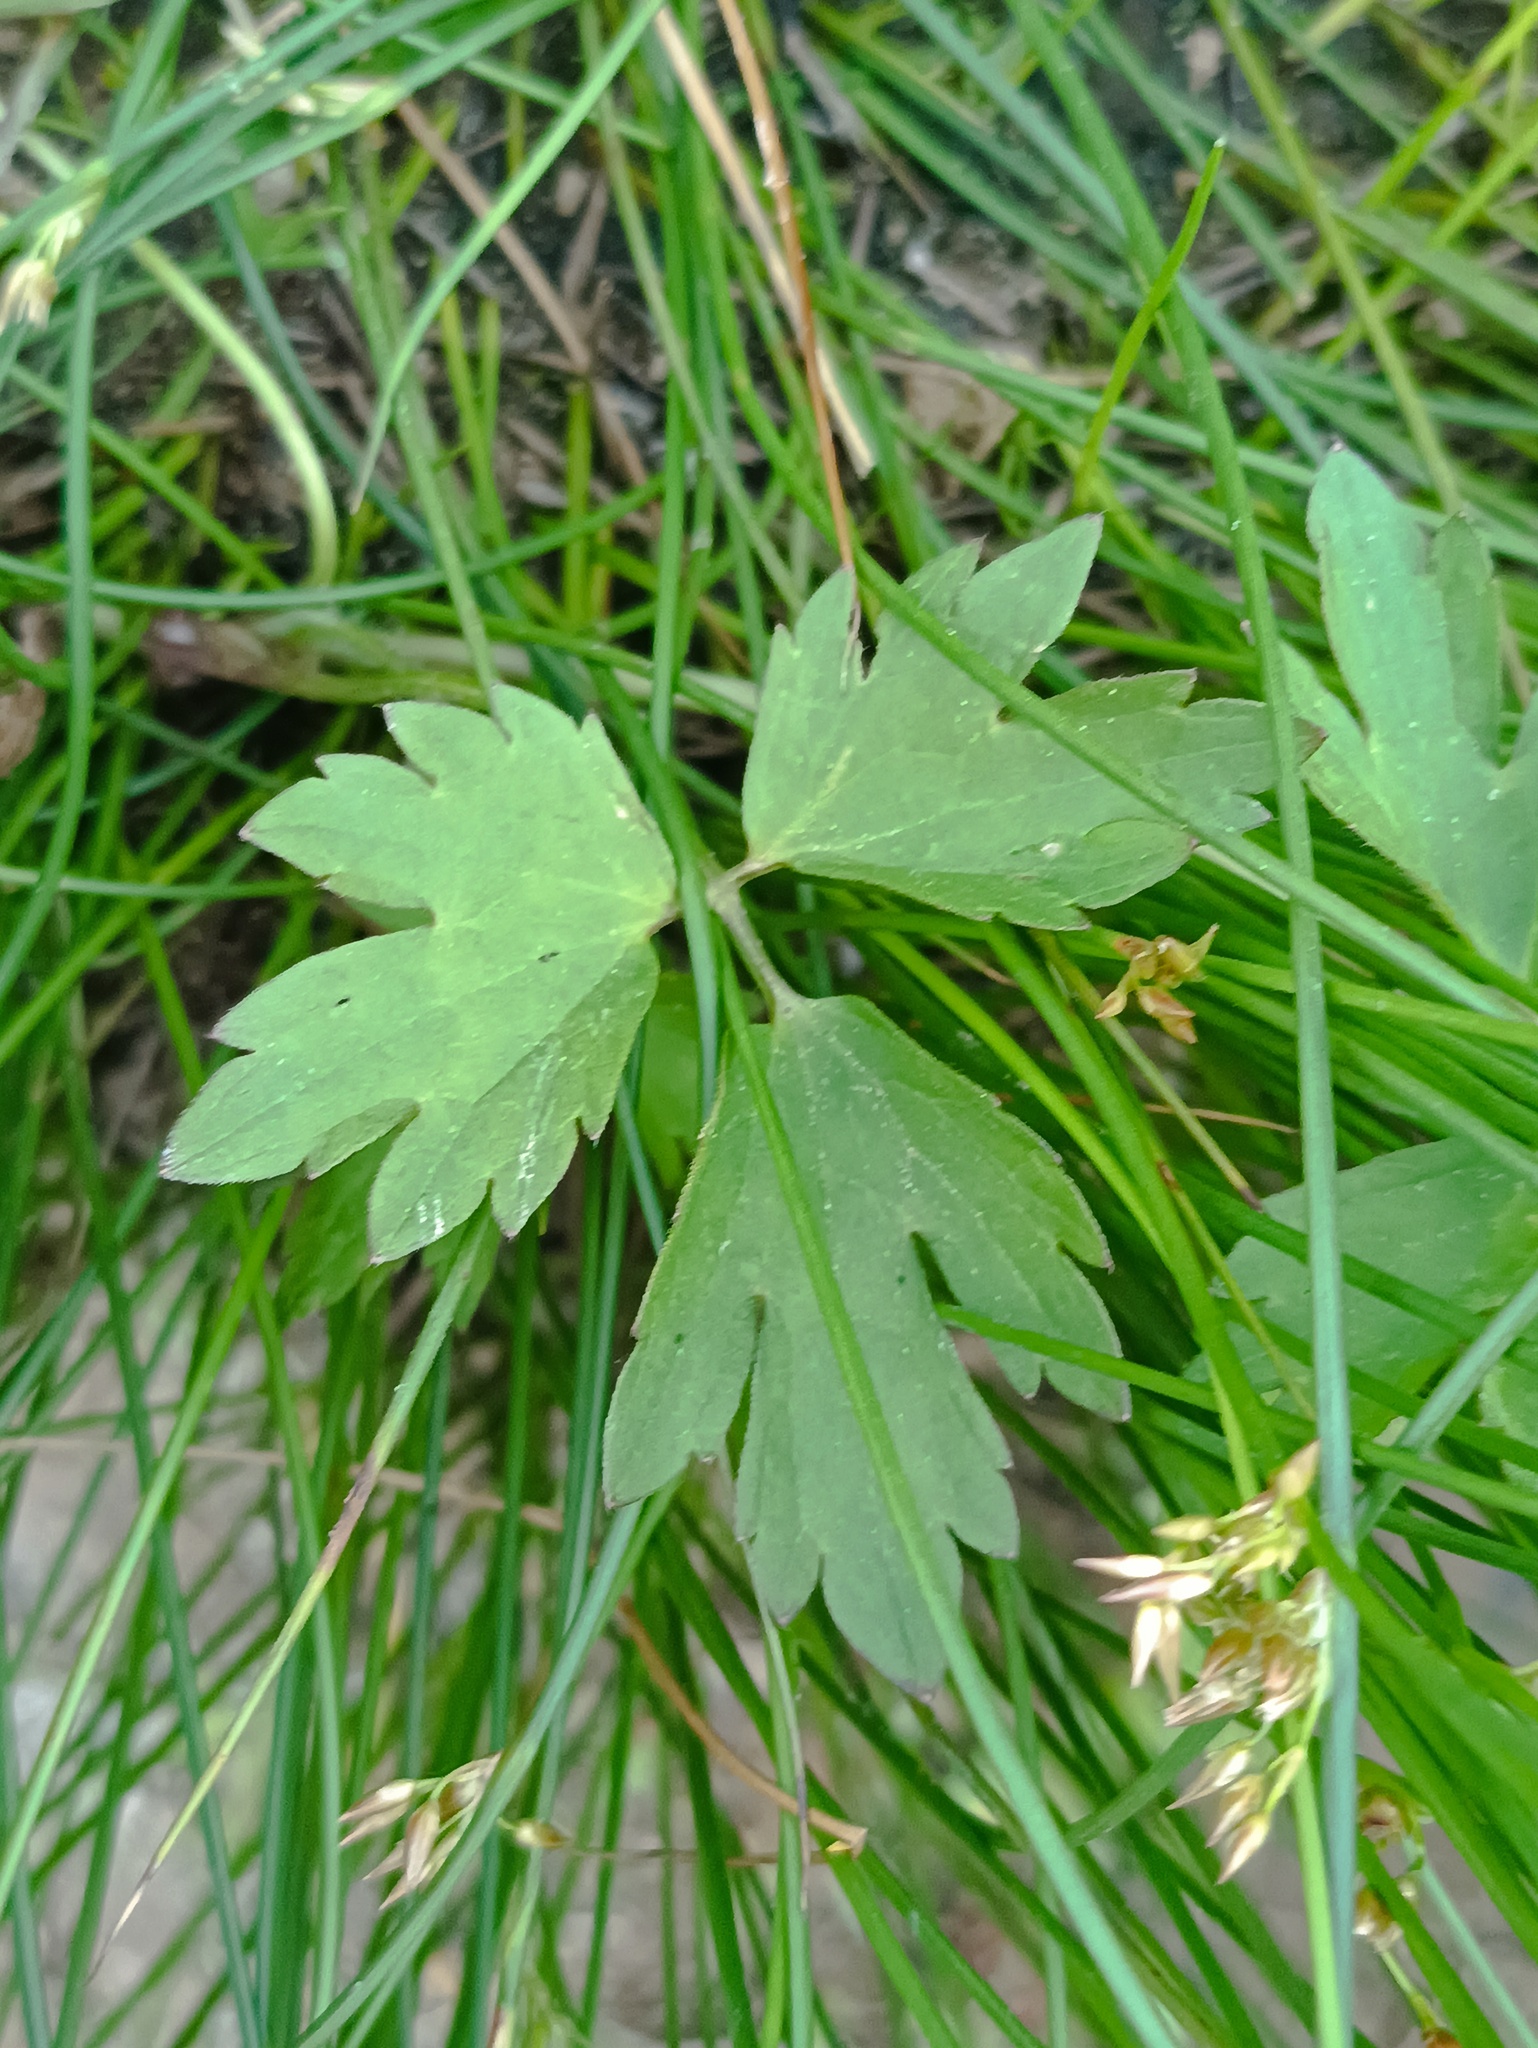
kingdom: Plantae
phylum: Tracheophyta
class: Magnoliopsida
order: Ranunculales
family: Ranunculaceae
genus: Ranunculus
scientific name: Ranunculus repens
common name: Creeping buttercup
